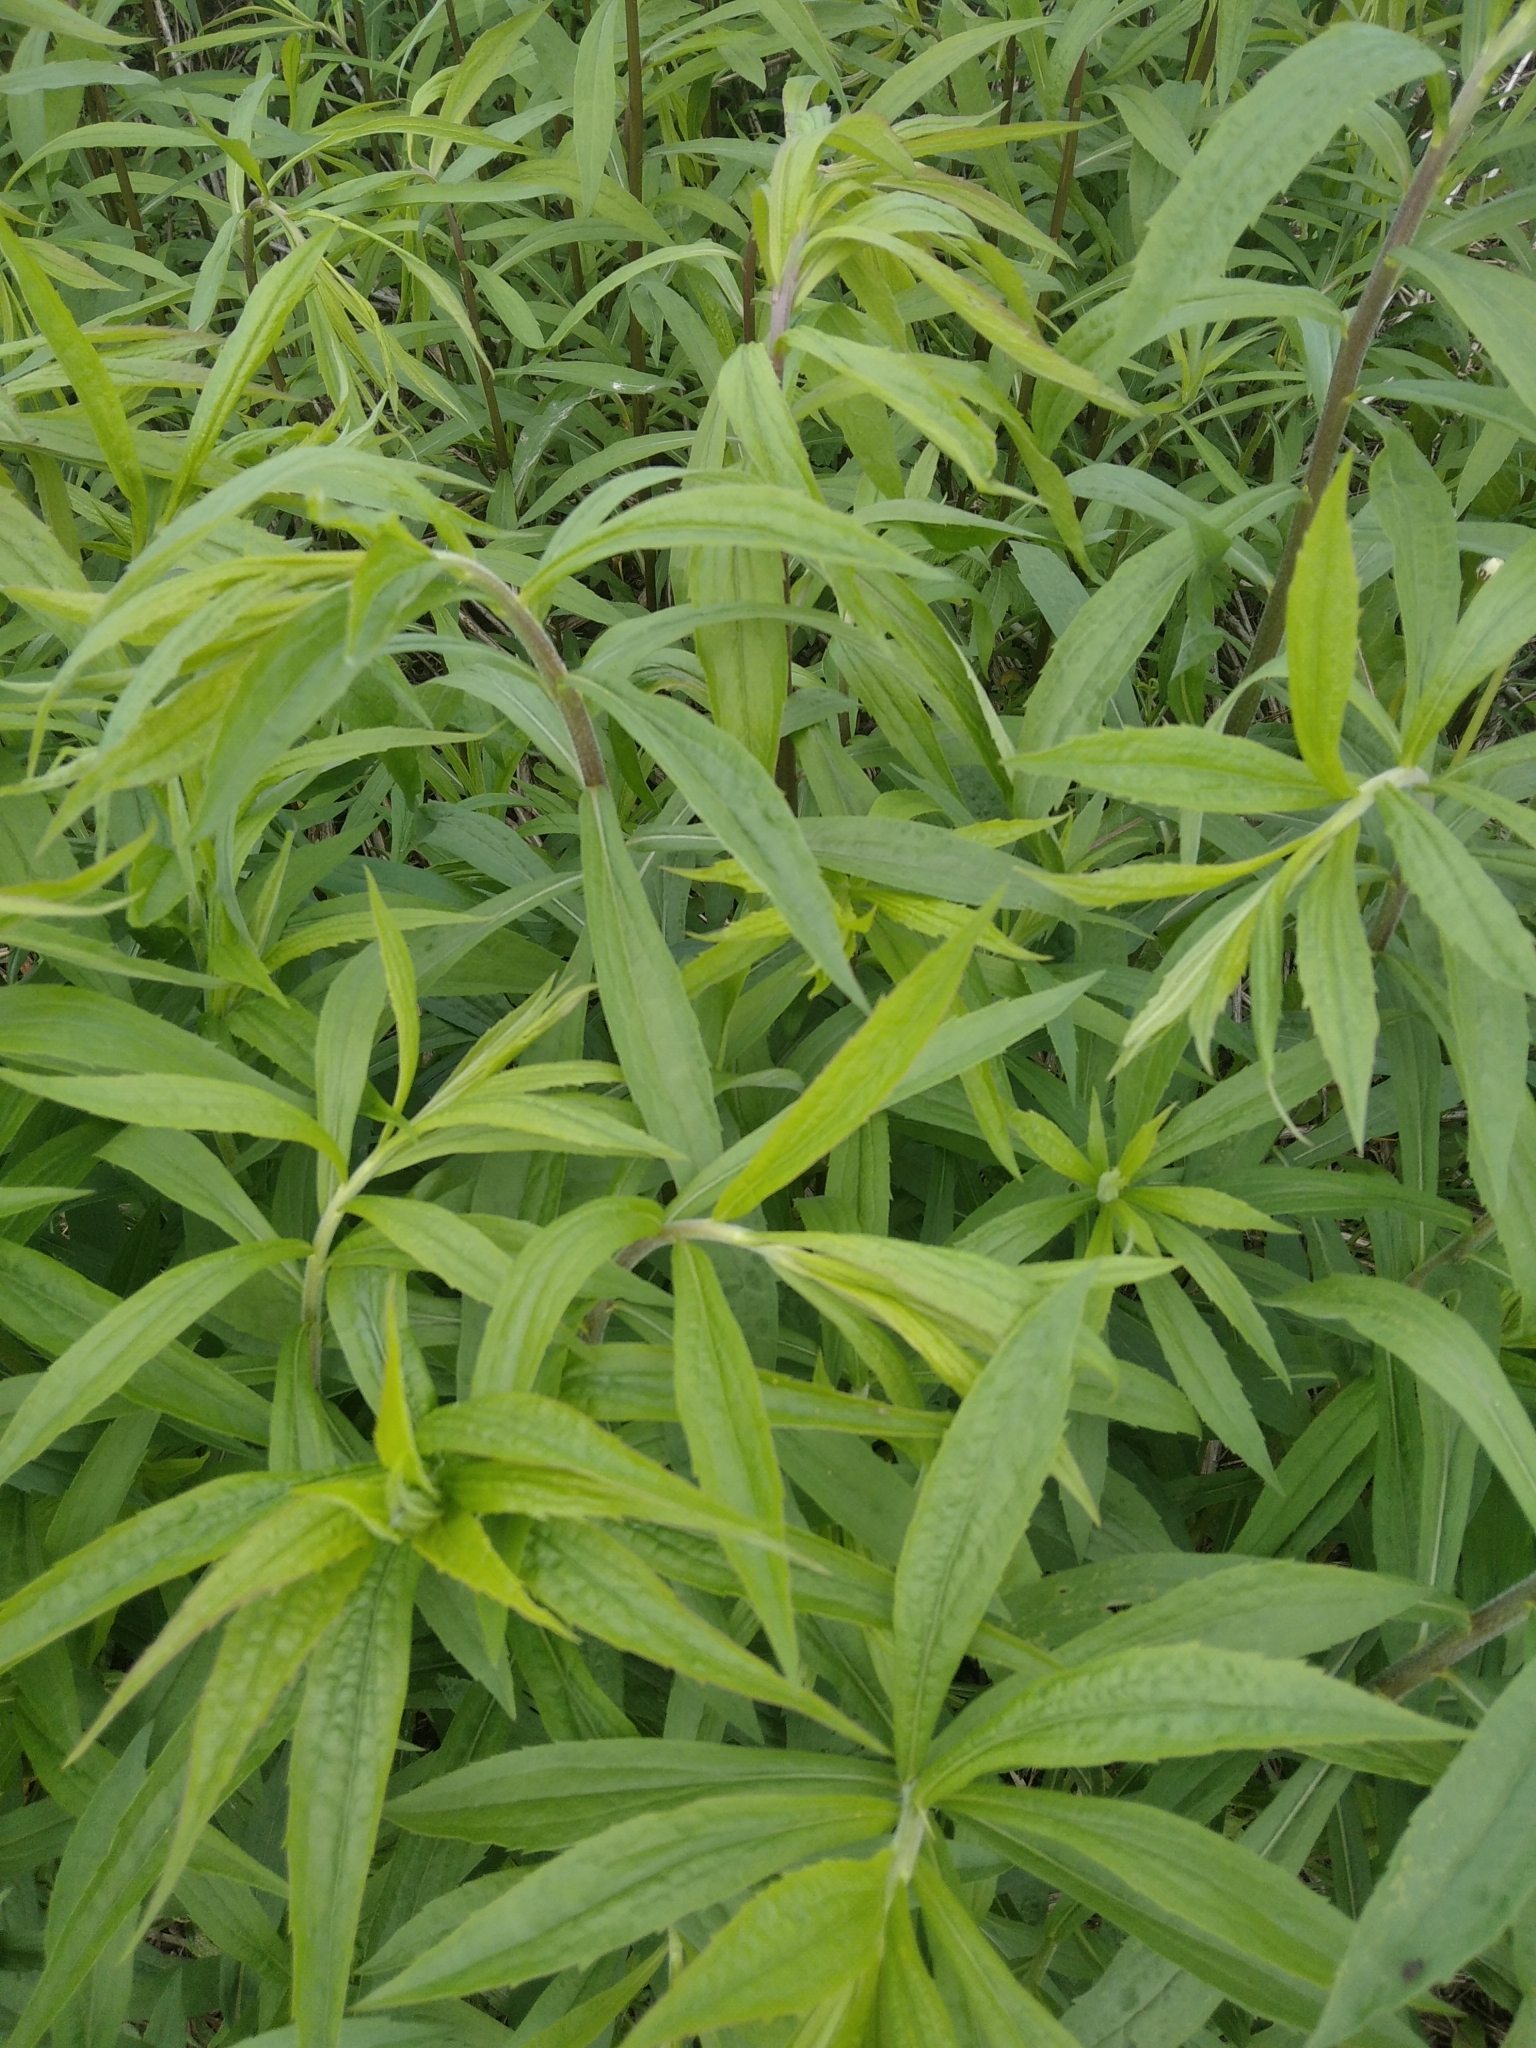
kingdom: Plantae
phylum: Tracheophyta
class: Magnoliopsida
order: Asterales
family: Asteraceae
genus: Solidago
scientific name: Solidago canadensis
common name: Canada goldenrod
